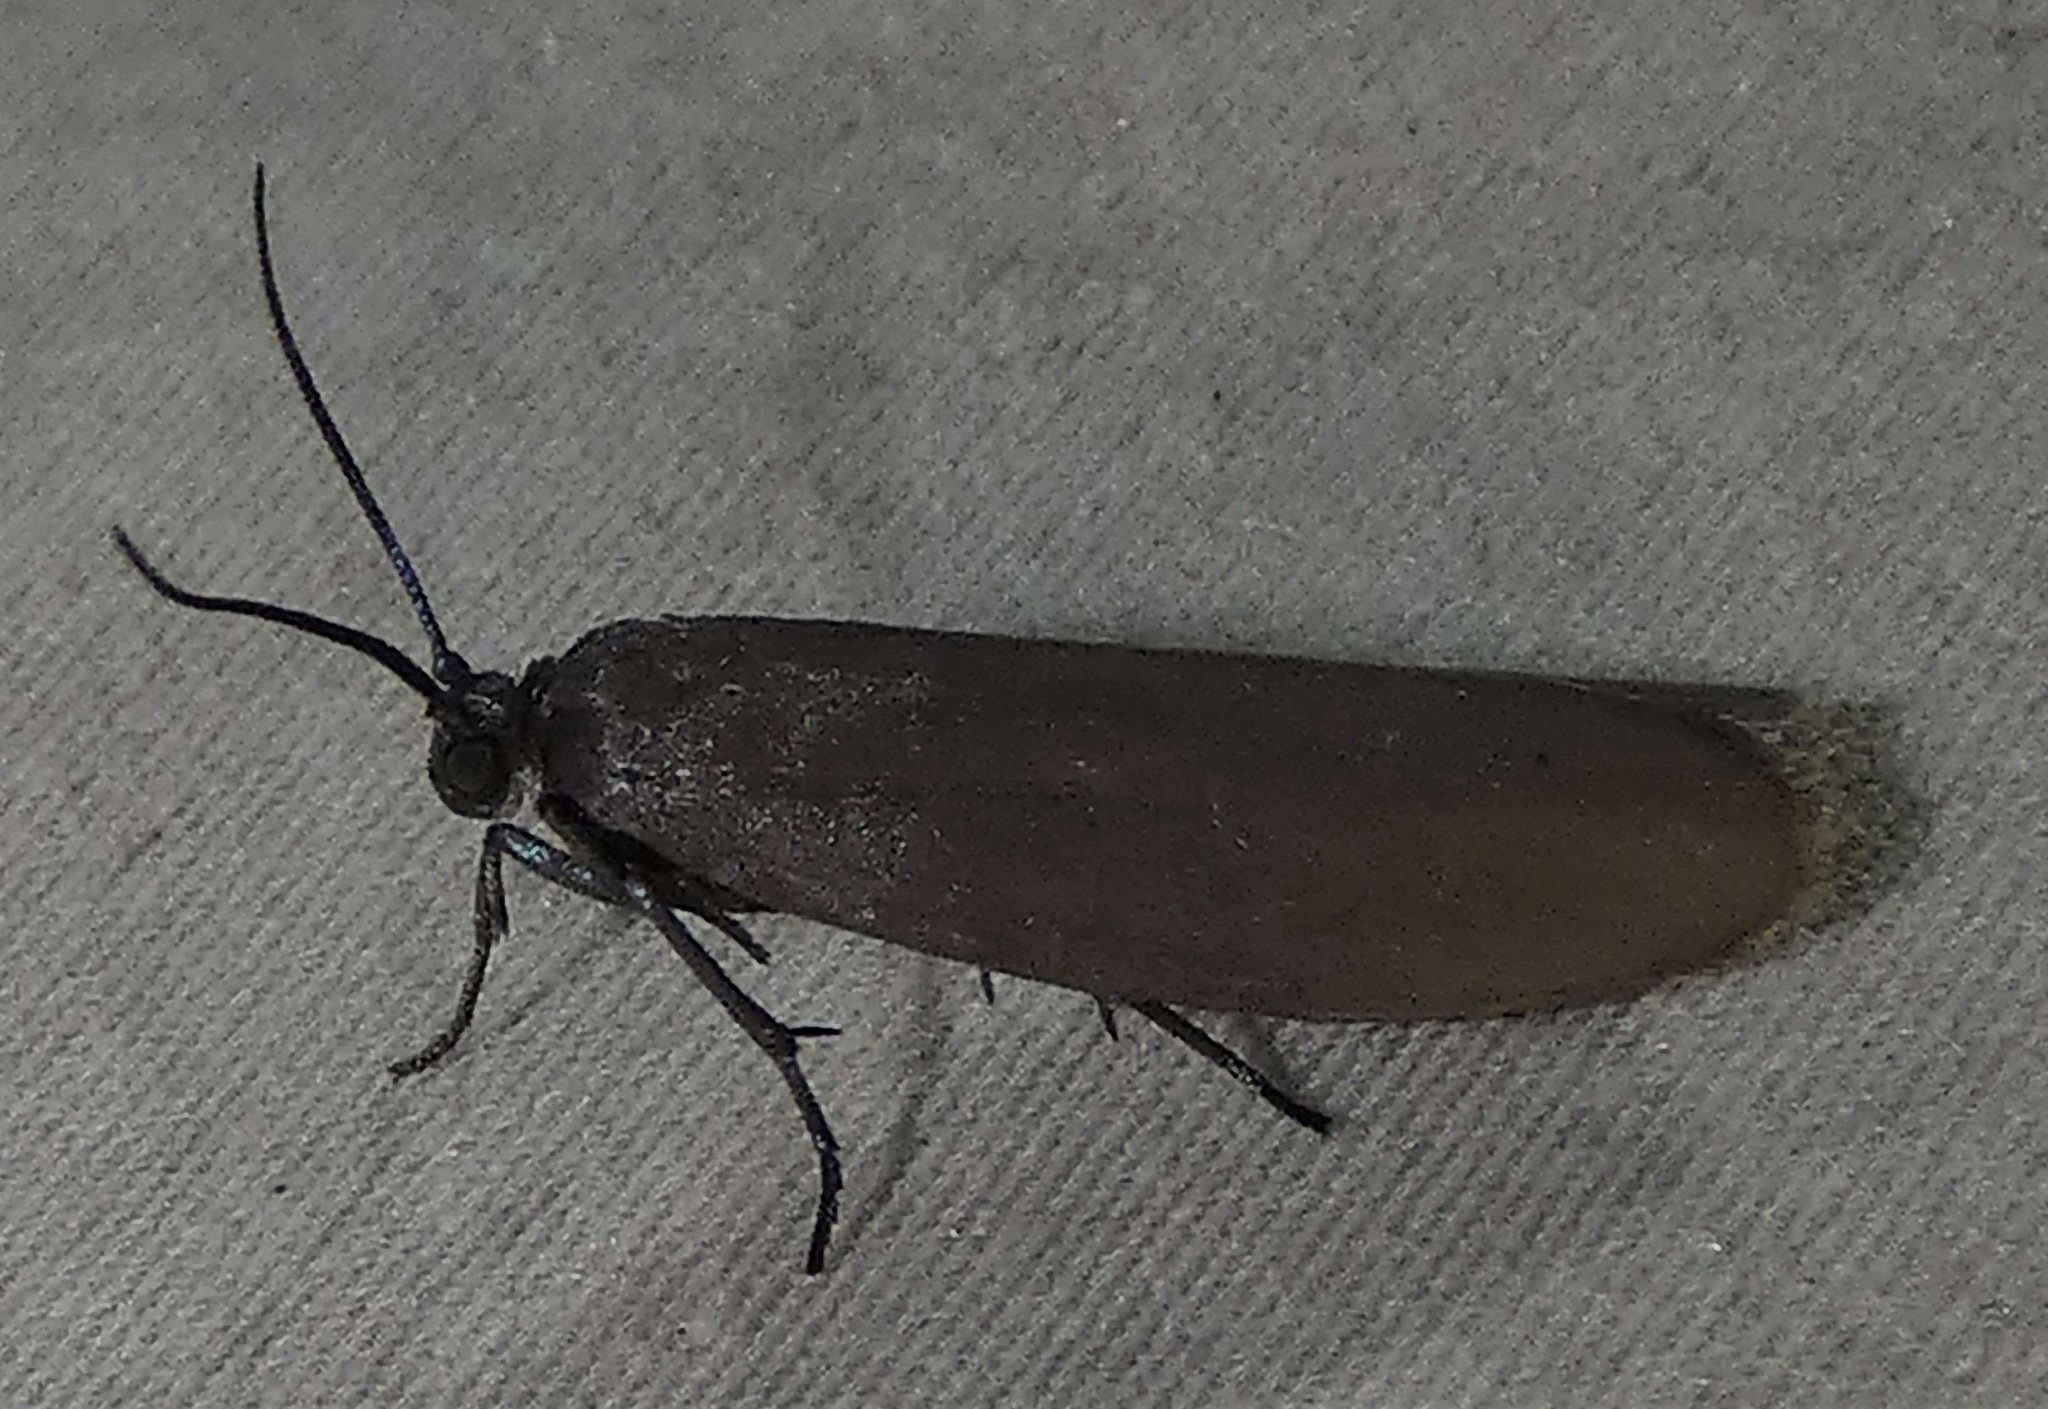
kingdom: Animalia
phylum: Arthropoda
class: Insecta
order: Lepidoptera
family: Urodidae
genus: Urodus
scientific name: Urodus parvula
